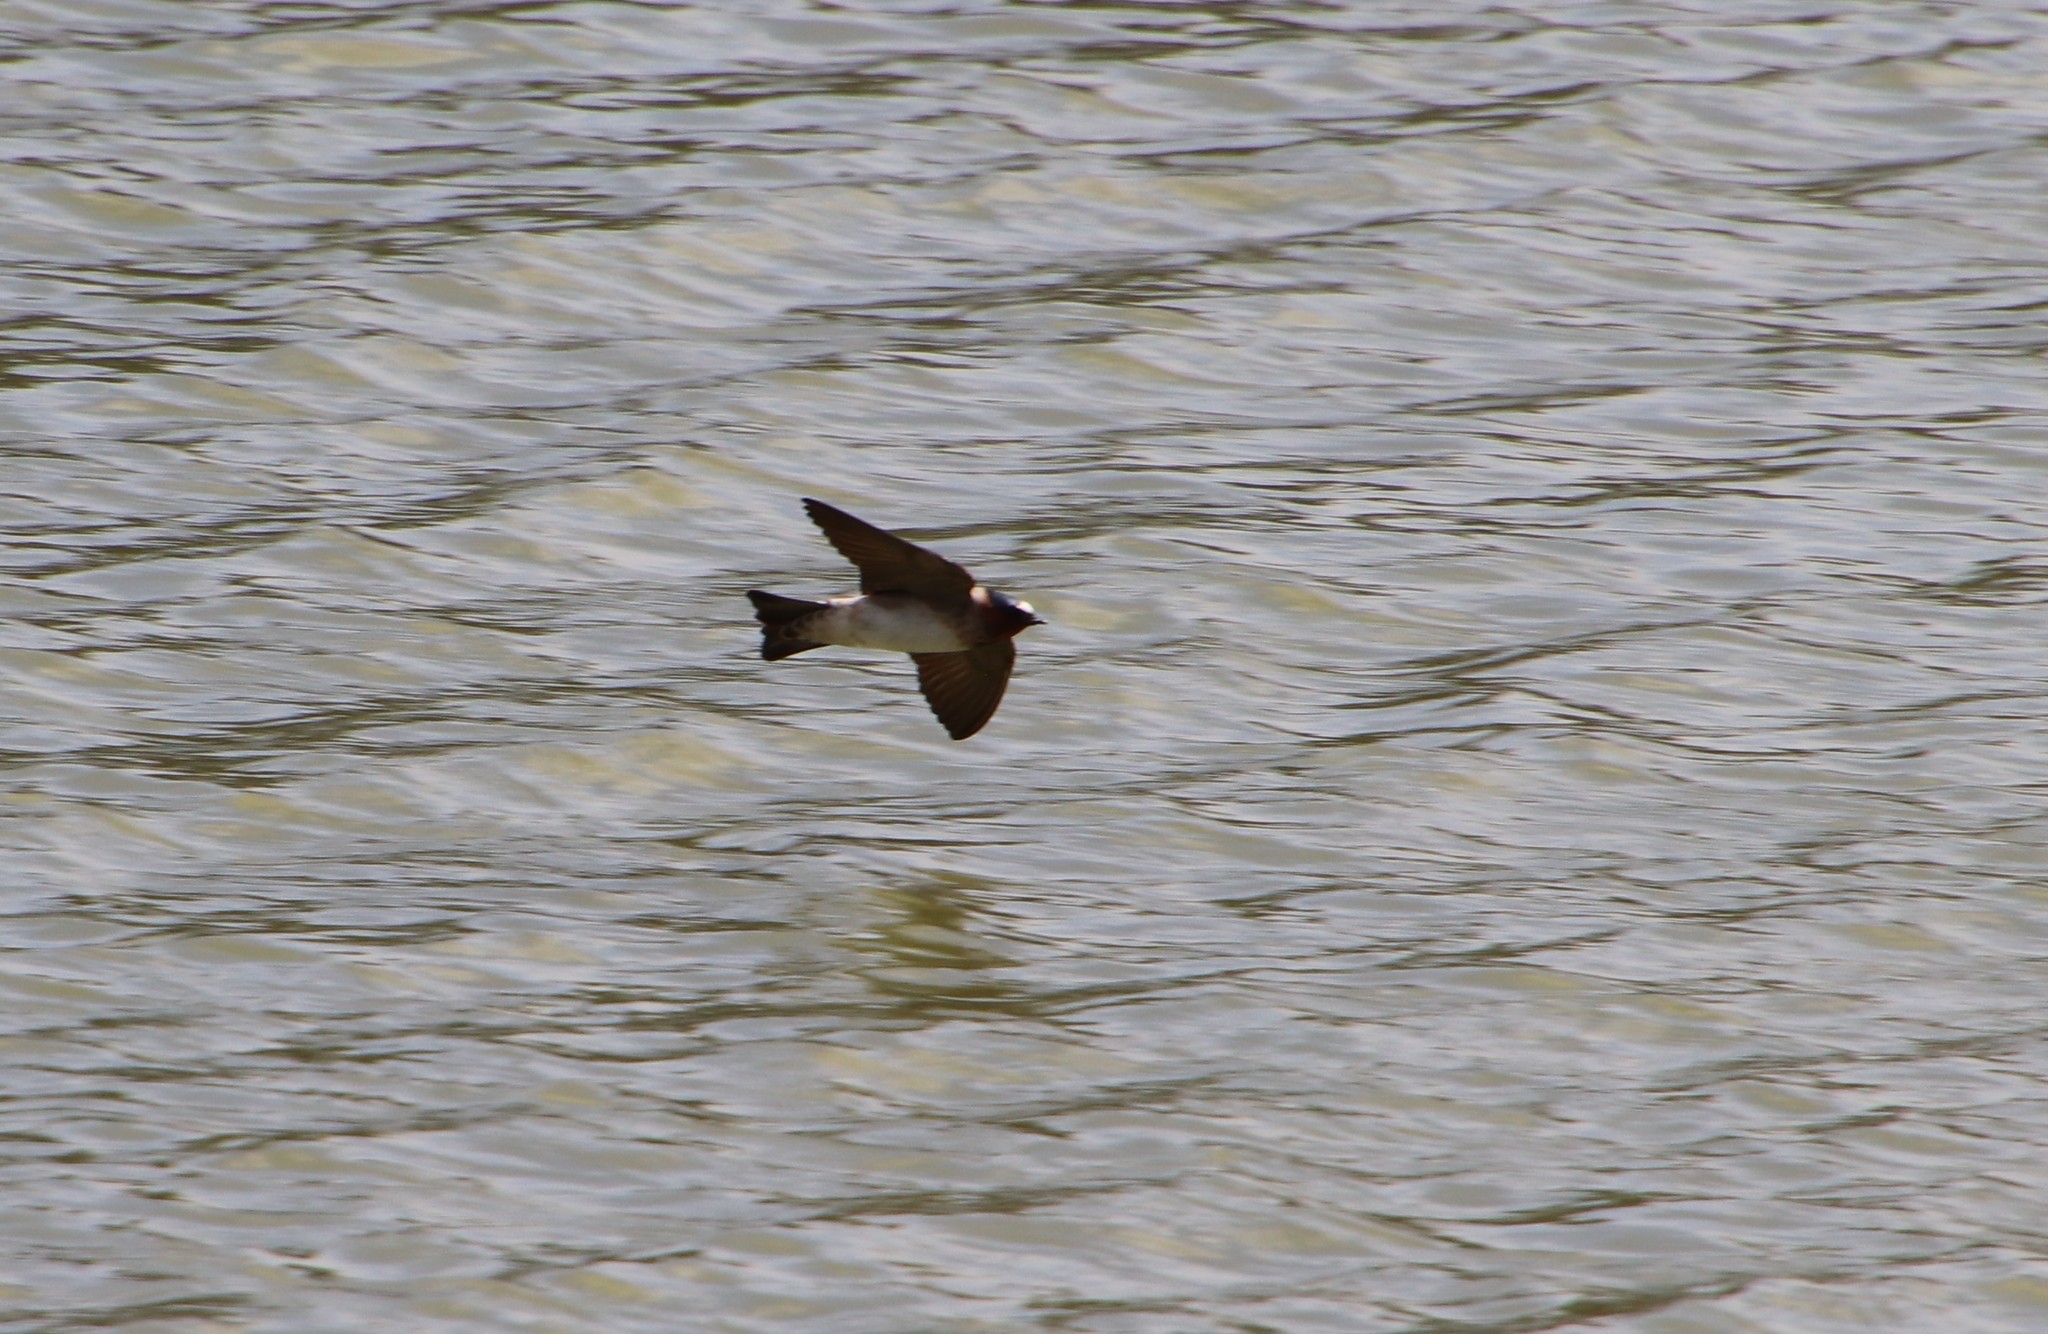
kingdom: Animalia
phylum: Chordata
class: Aves
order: Passeriformes
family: Hirundinidae
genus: Petrochelidon
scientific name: Petrochelidon pyrrhonota
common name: American cliff swallow
